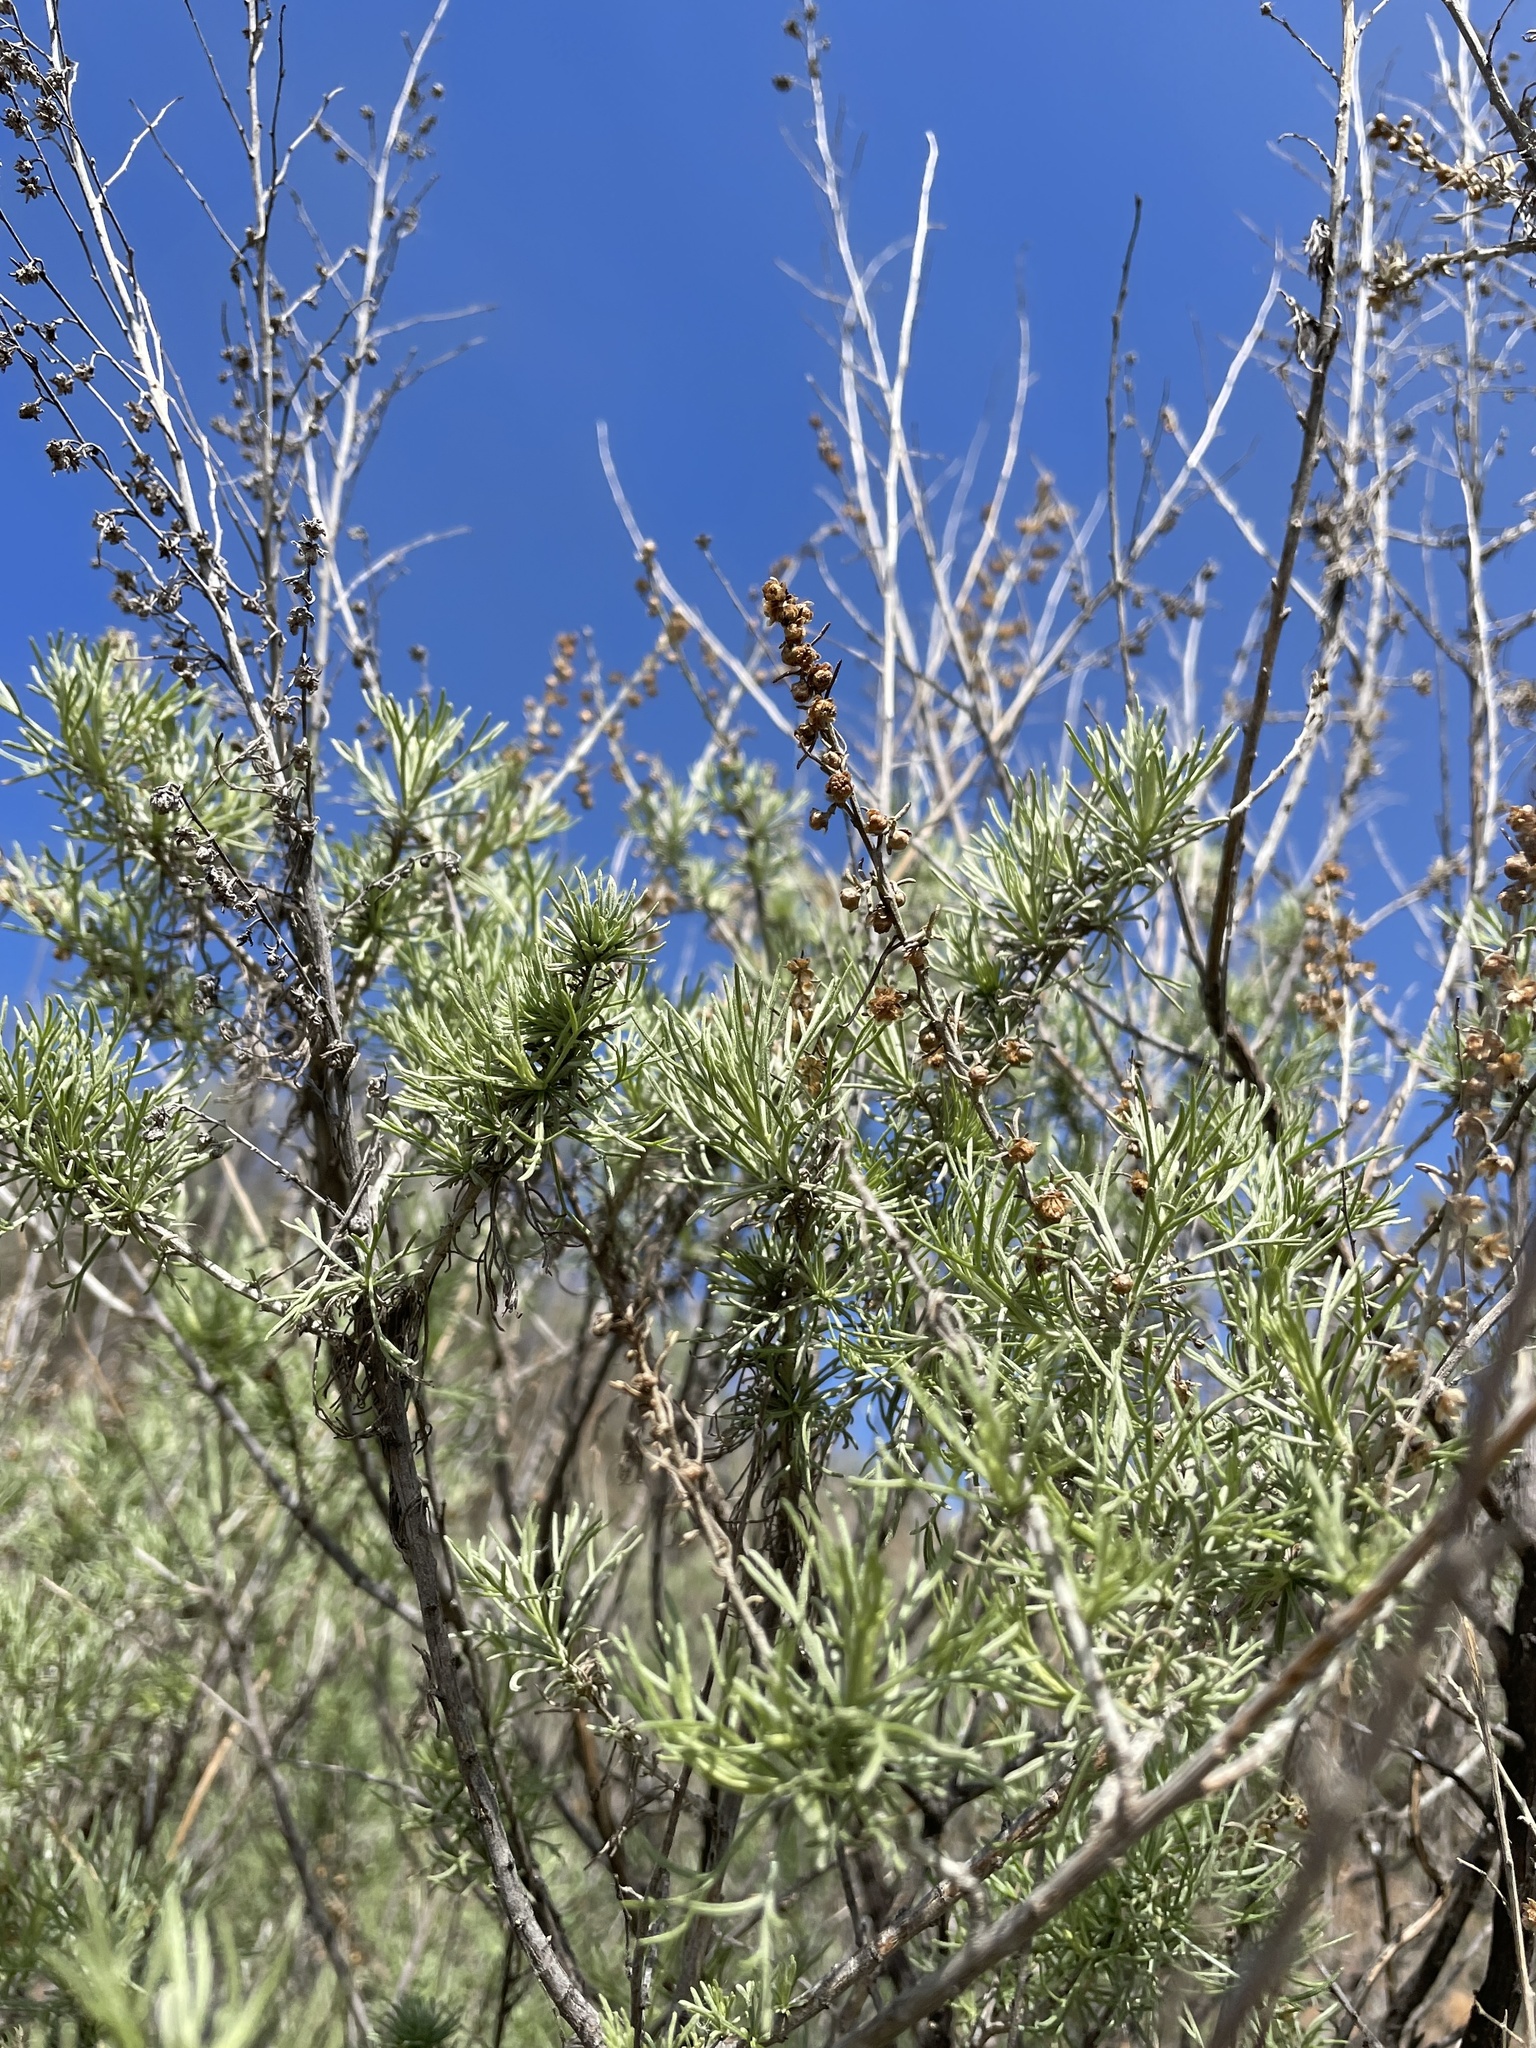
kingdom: Plantae
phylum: Tracheophyta
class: Magnoliopsida
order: Asterales
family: Asteraceae
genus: Artemisia
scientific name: Artemisia californica
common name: California sagebrush
